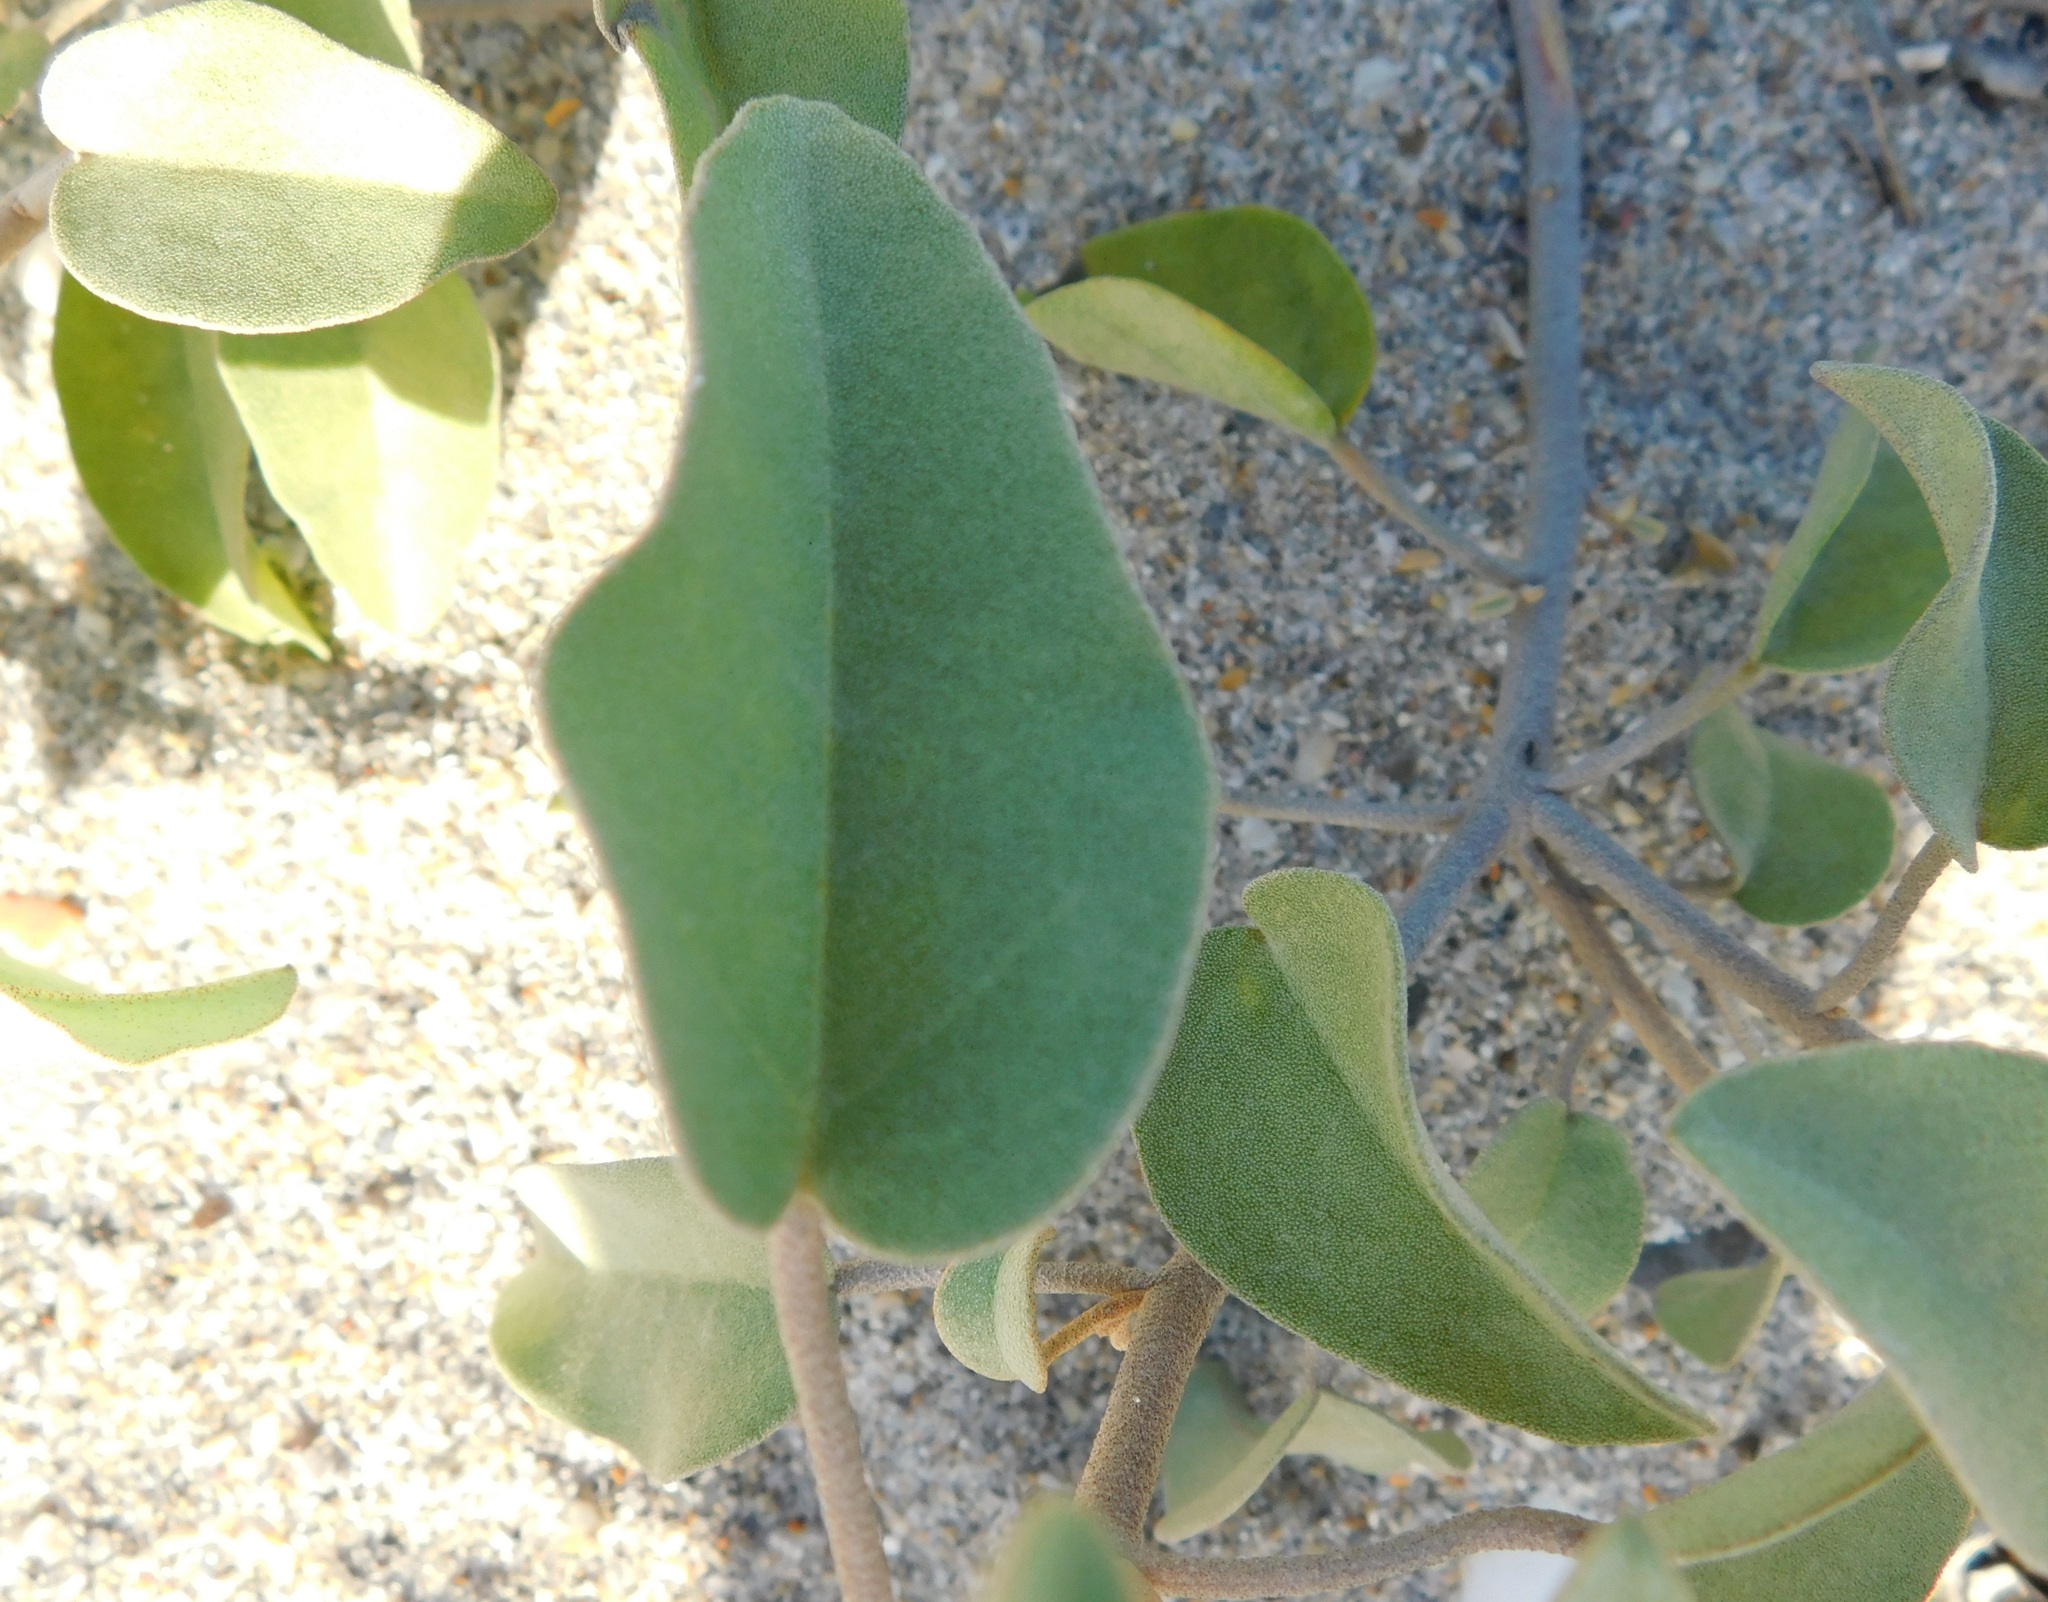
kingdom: Plantae
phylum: Tracheophyta
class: Magnoliopsida
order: Malpighiales
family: Euphorbiaceae
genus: Croton
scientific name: Croton punctatus
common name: Beach-tea
